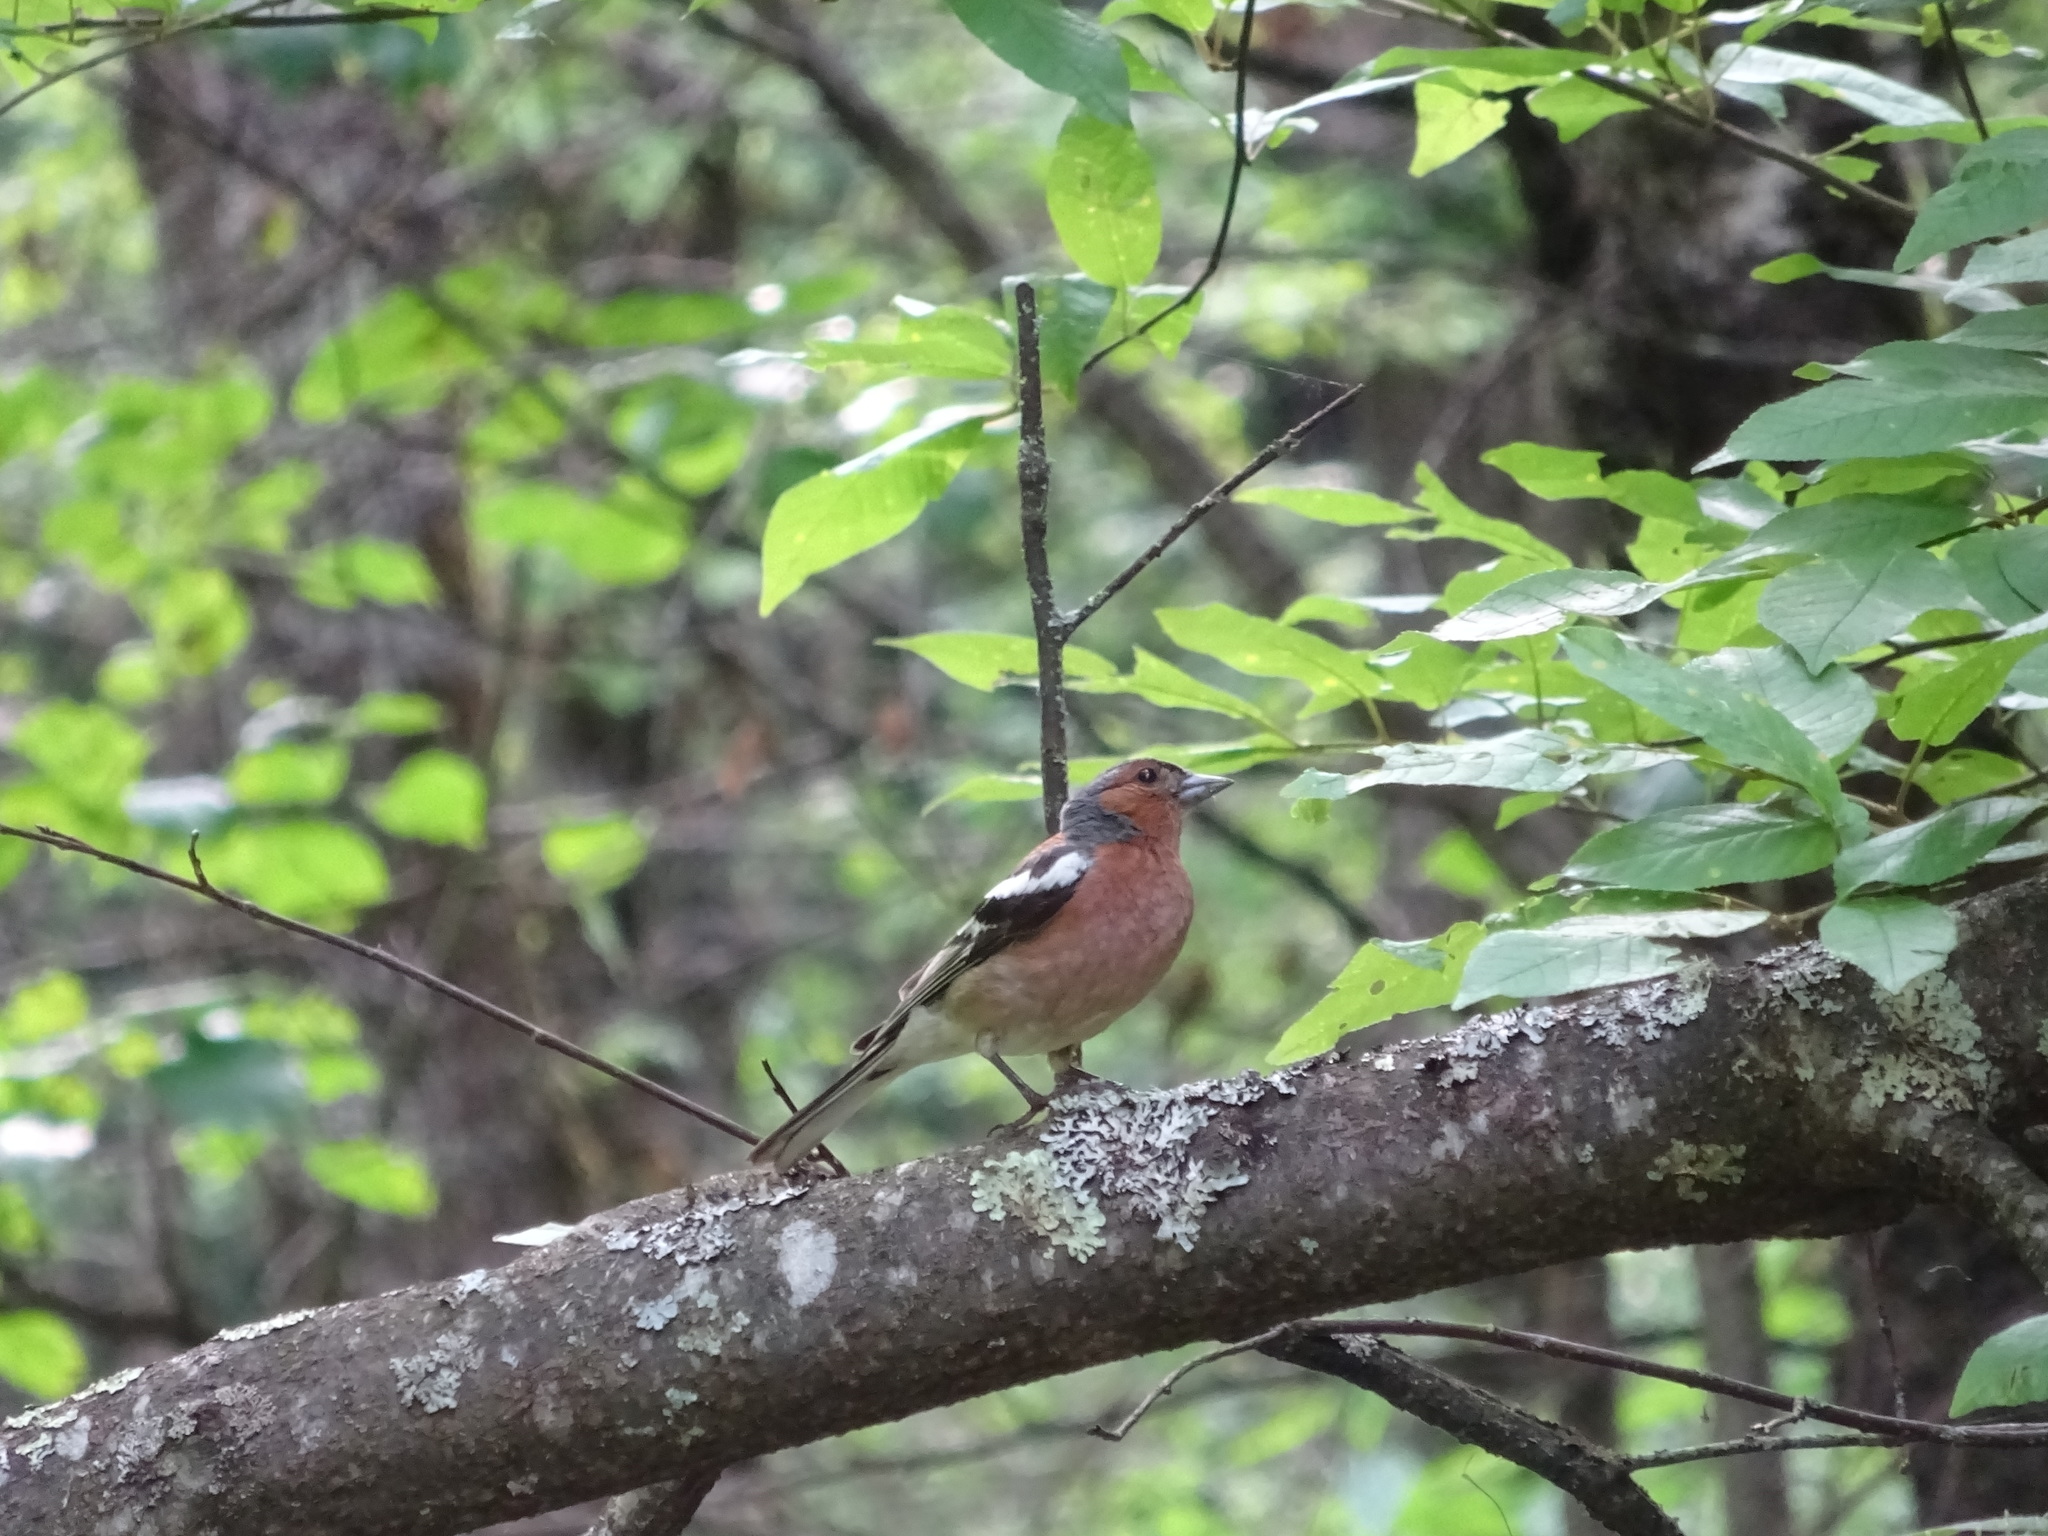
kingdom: Animalia
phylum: Chordata
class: Aves
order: Passeriformes
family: Fringillidae
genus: Fringilla
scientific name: Fringilla coelebs
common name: Common chaffinch
